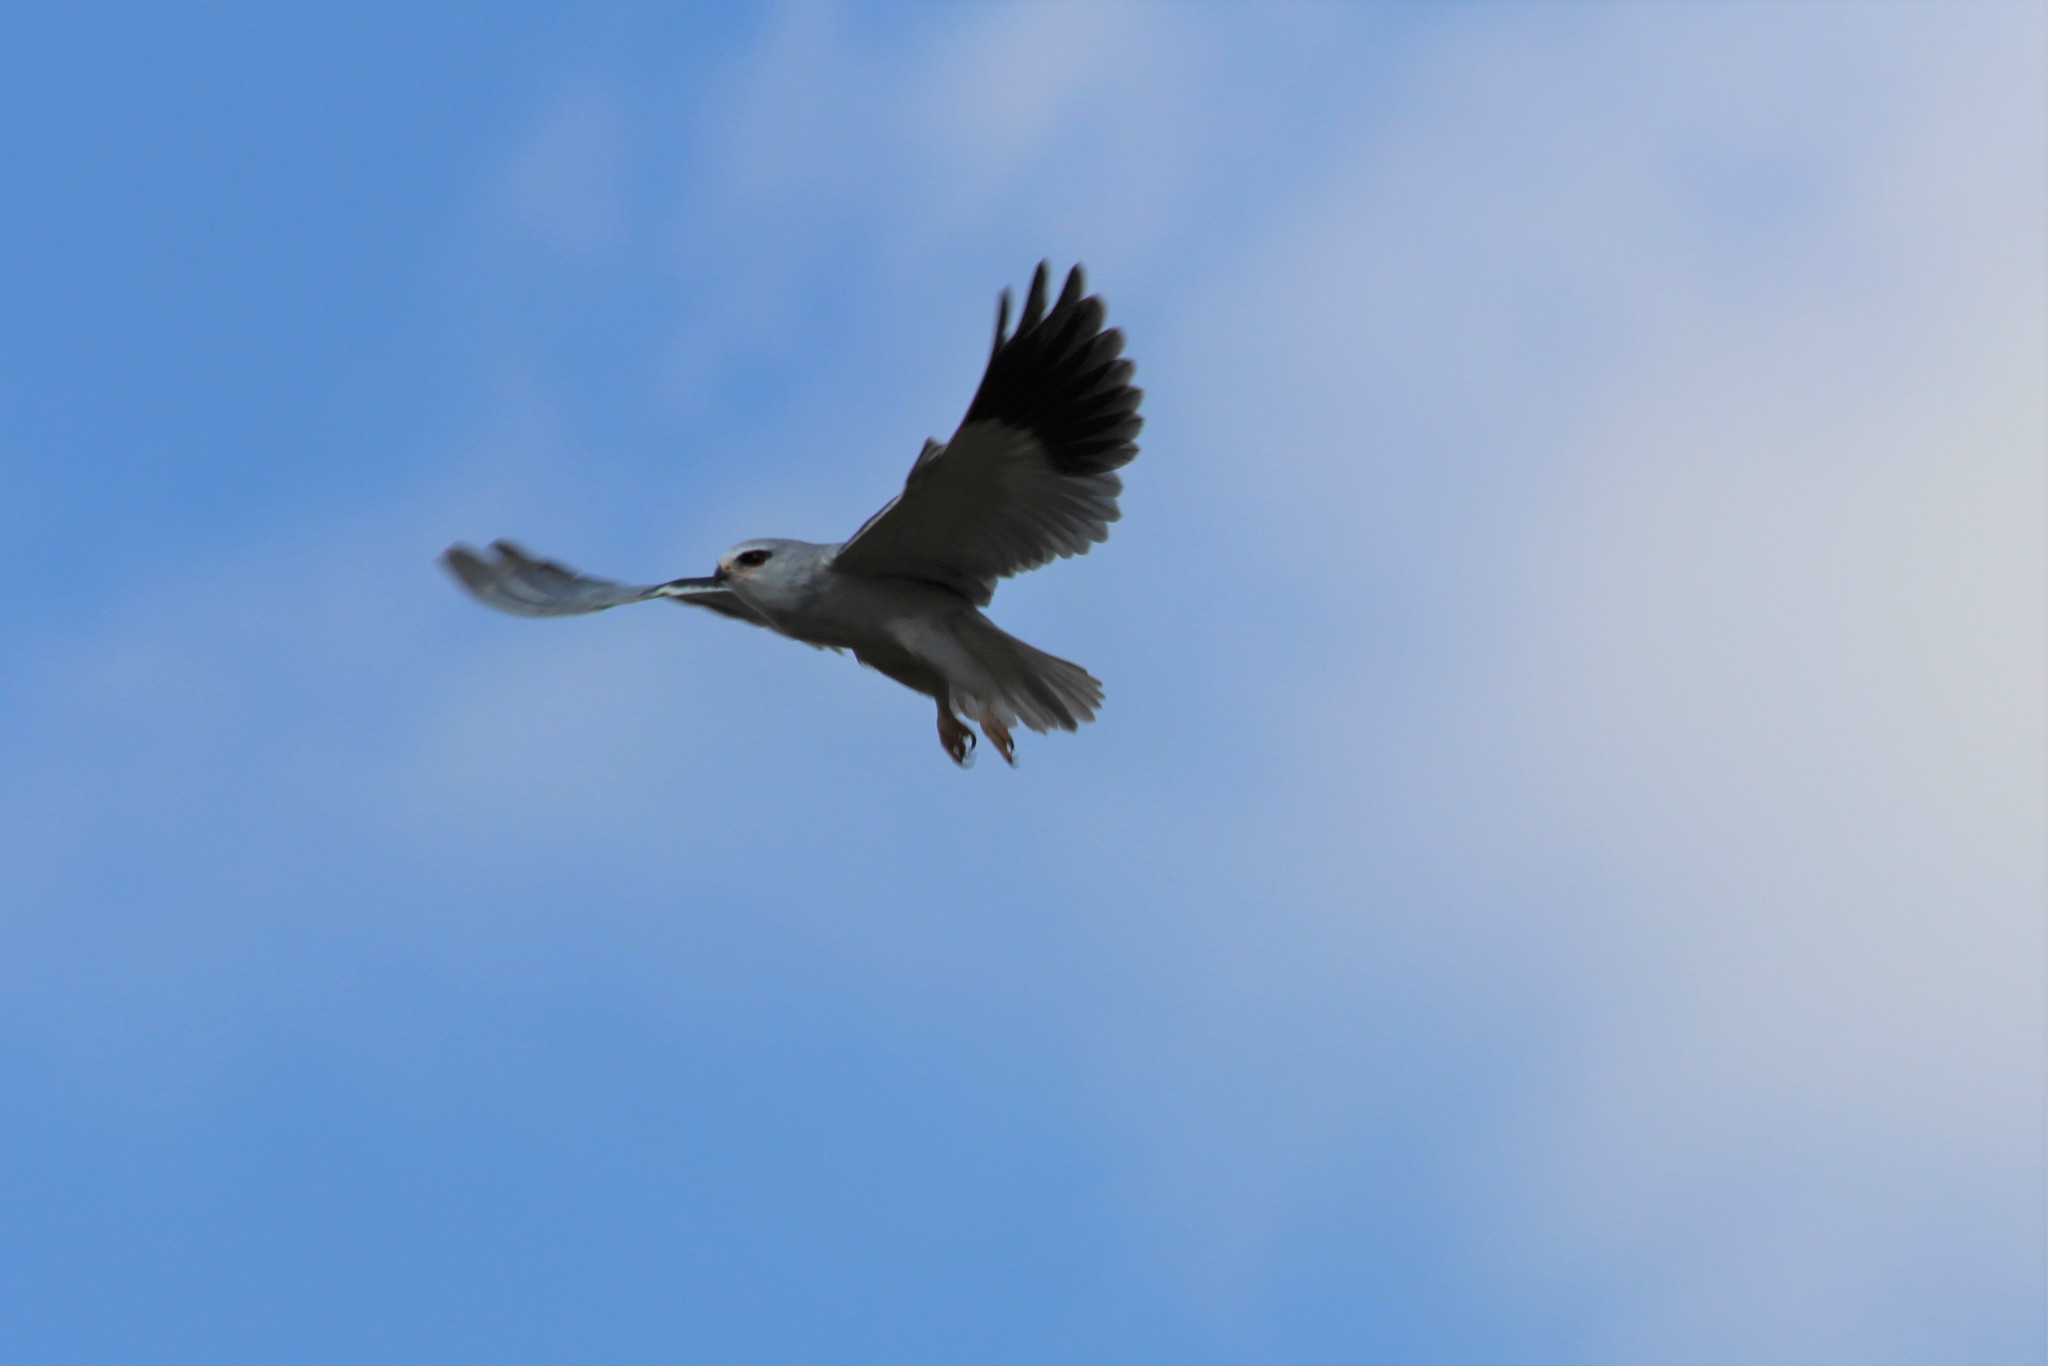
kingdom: Animalia
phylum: Chordata
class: Aves
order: Accipitriformes
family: Accipitridae
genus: Elanus
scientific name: Elanus caeruleus
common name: Black-winged kite
